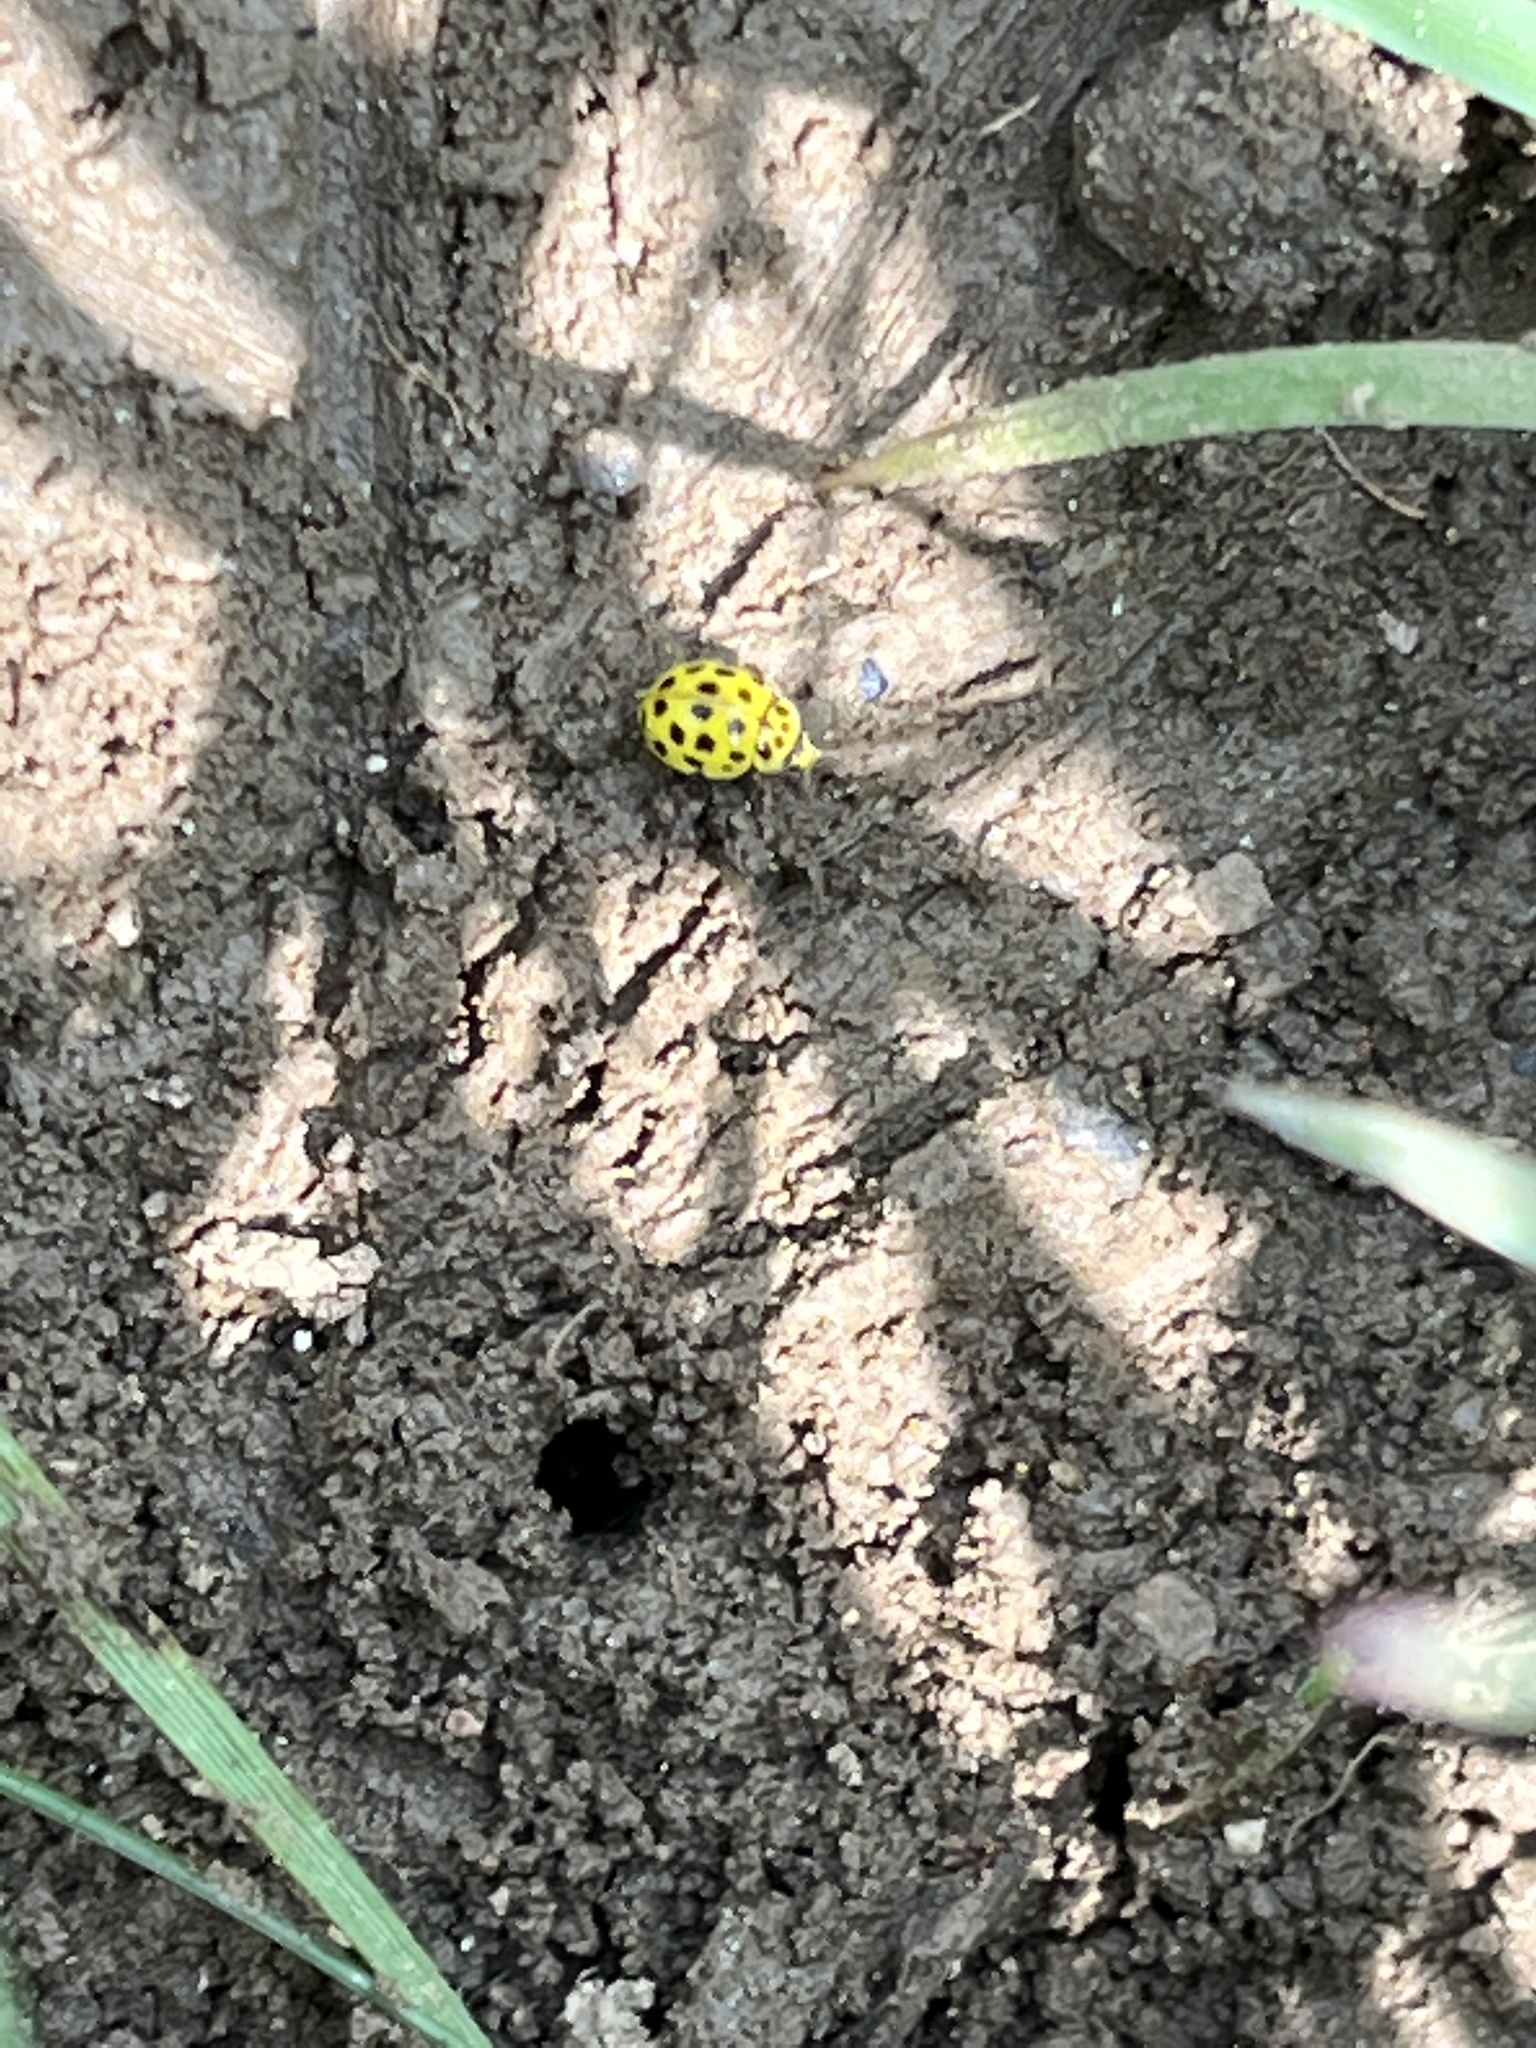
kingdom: Animalia
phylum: Arthropoda
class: Insecta
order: Coleoptera
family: Coccinellidae
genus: Psyllobora
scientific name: Psyllobora vigintiduopunctata
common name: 22-spot ladybird
